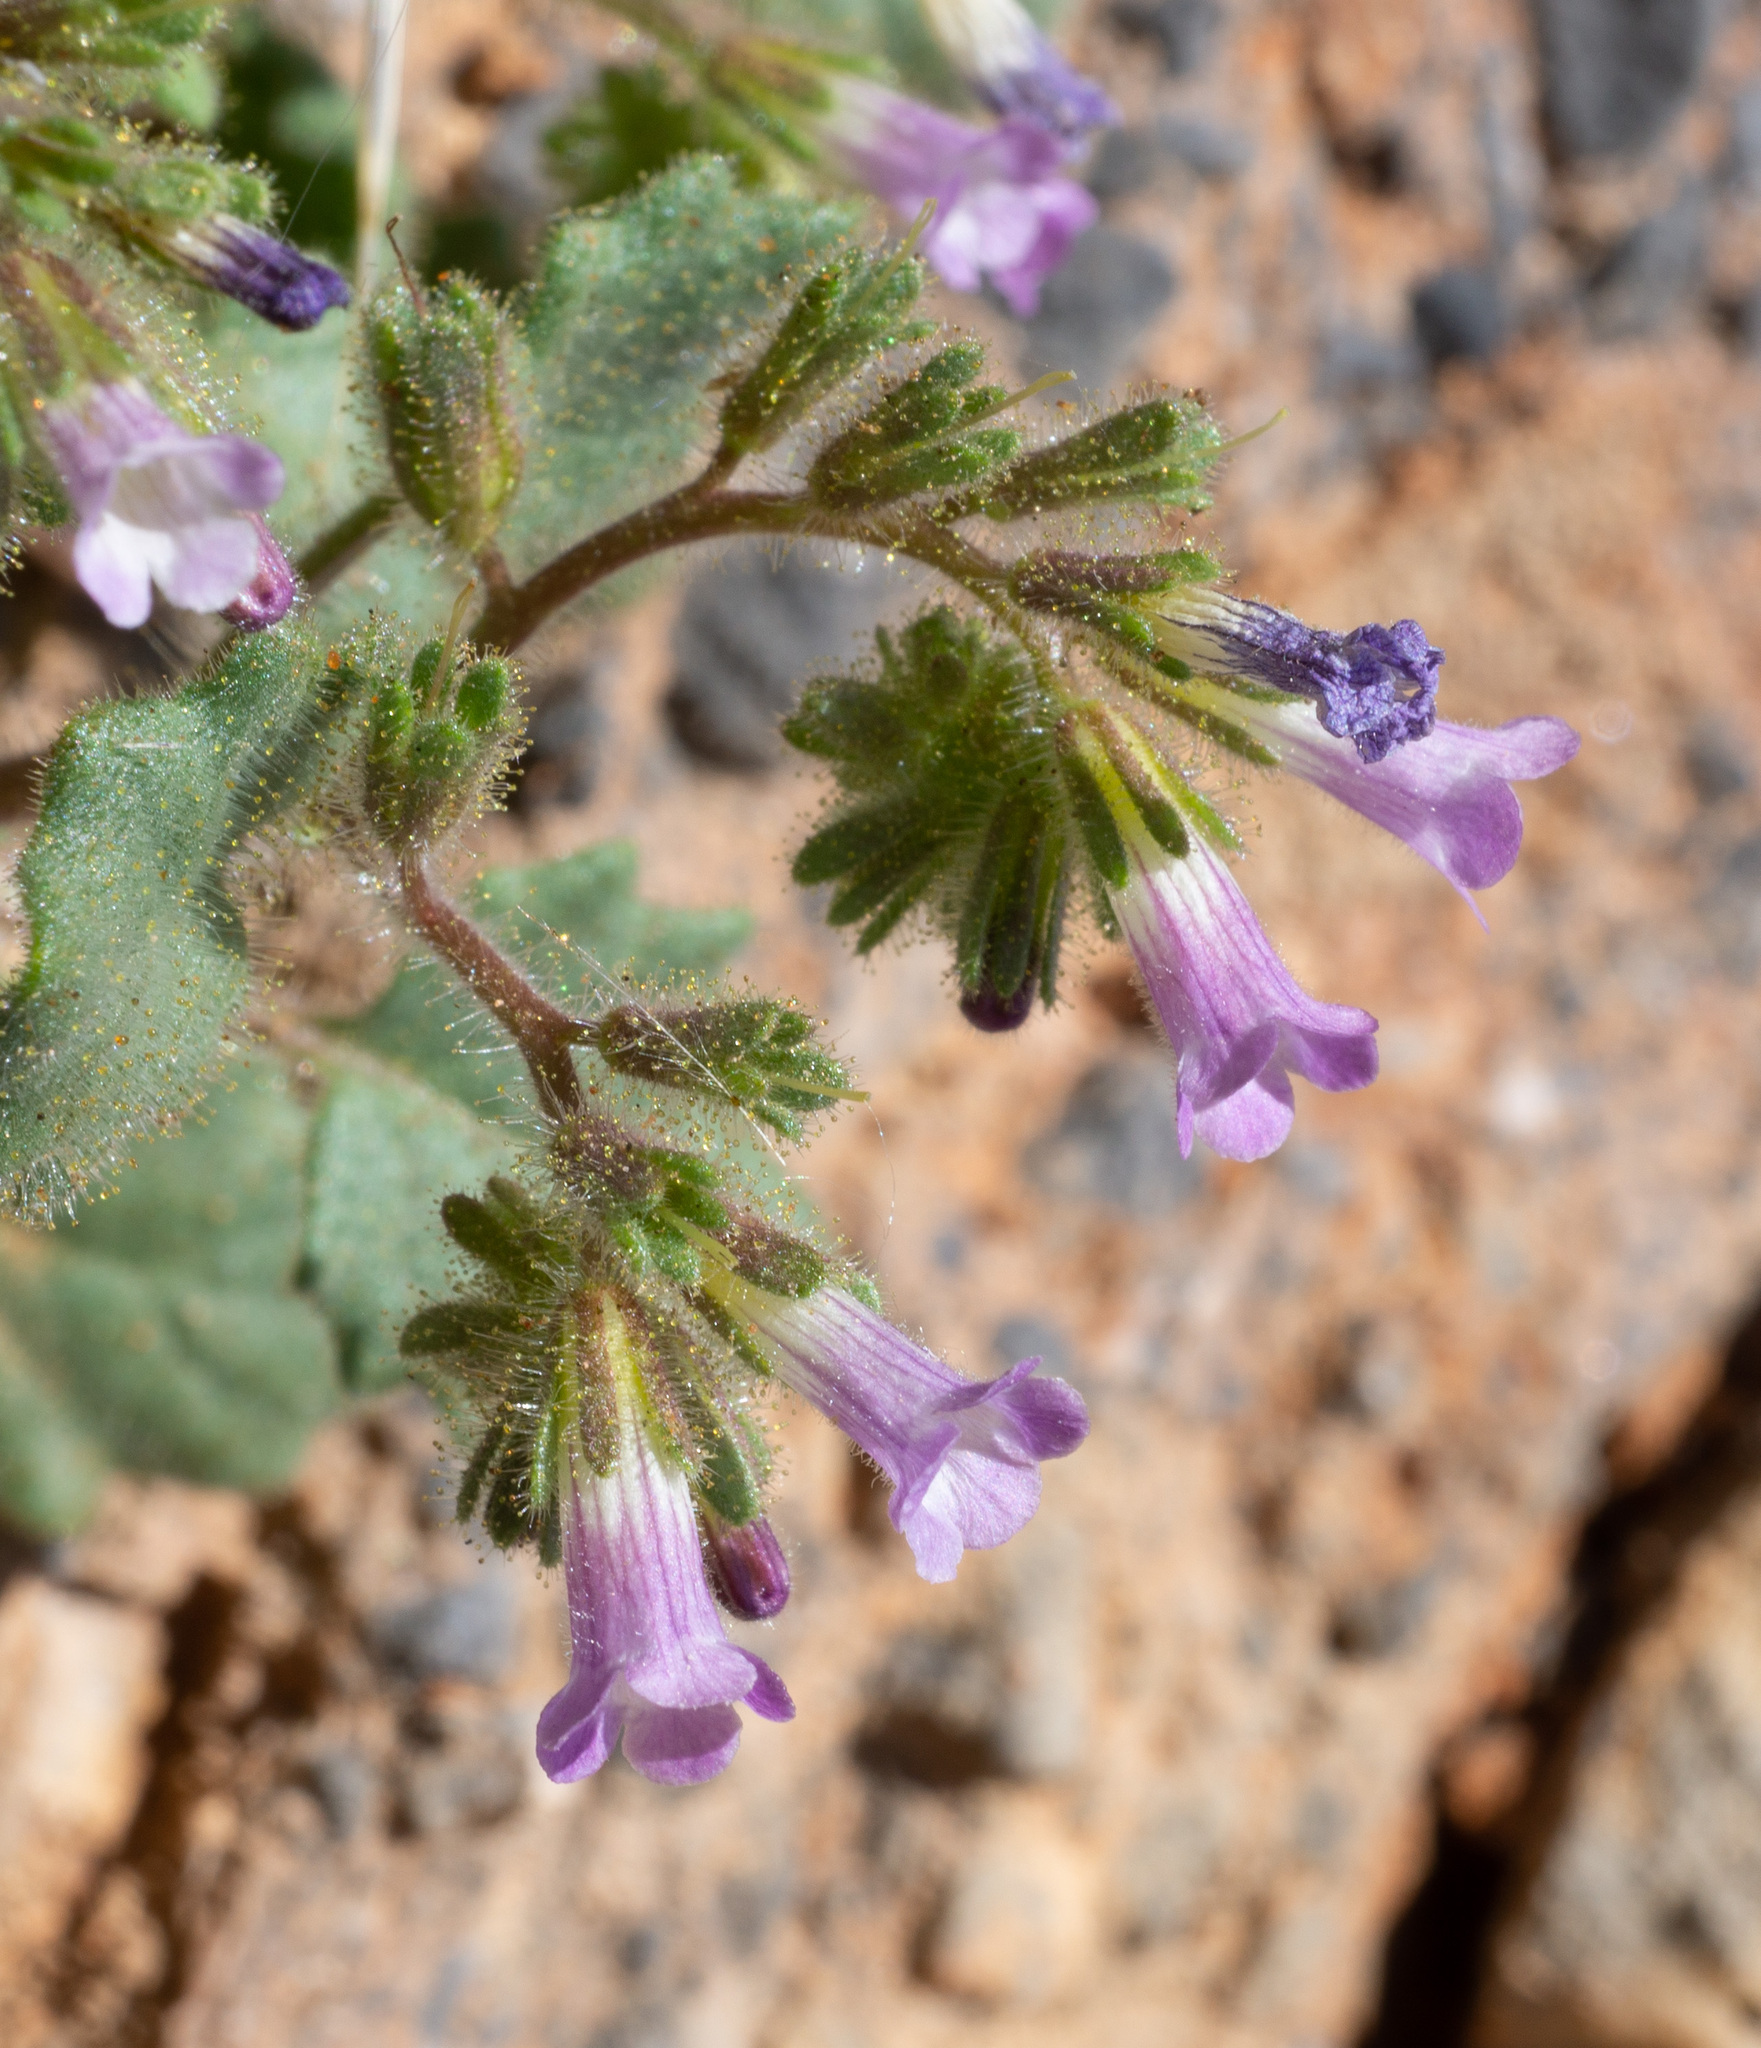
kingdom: Plantae
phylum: Tracheophyta
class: Magnoliopsida
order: Boraginales
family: Hydrophyllaceae
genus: Phacelia
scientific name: Phacelia mustelina
